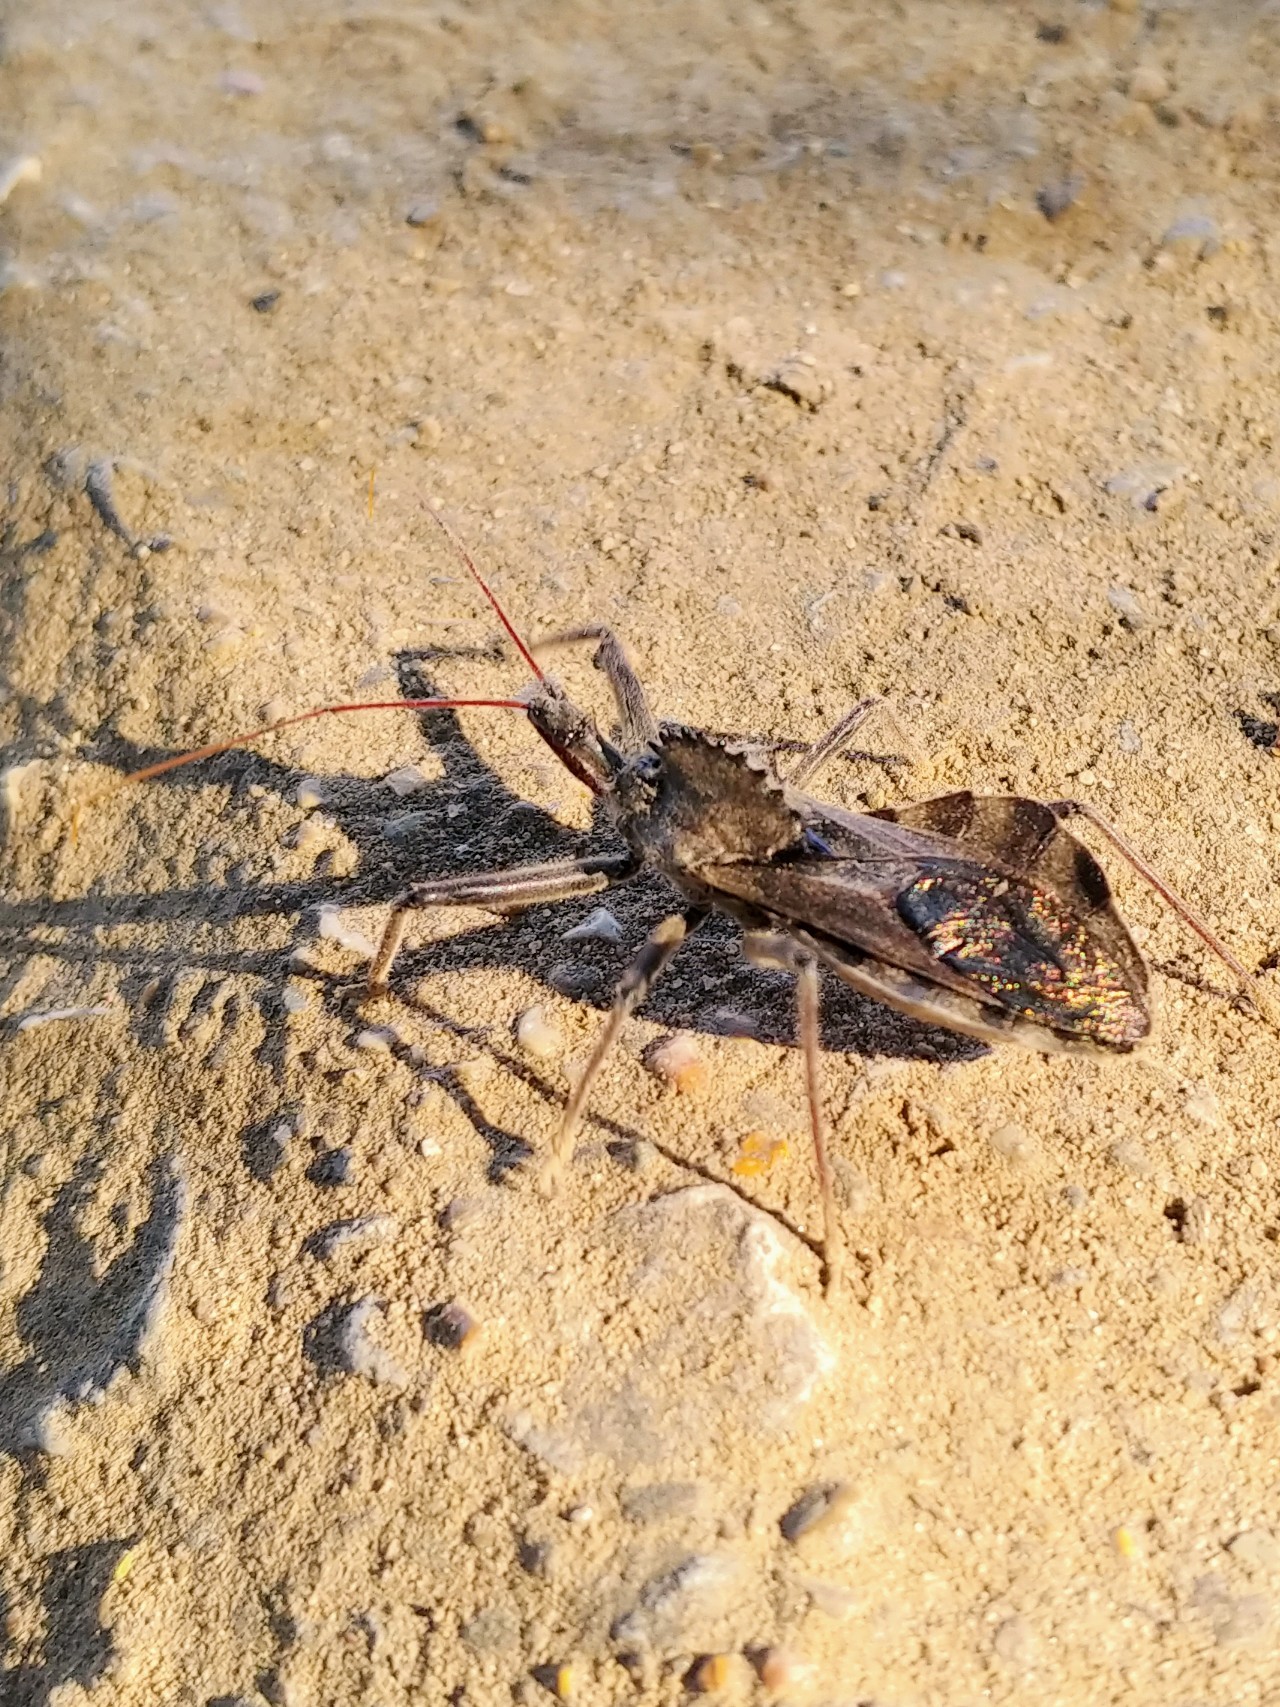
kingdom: Animalia
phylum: Arthropoda
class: Insecta
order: Hemiptera
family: Reduviidae
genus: Arilus
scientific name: Arilus cristatus
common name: North american wheel bug
